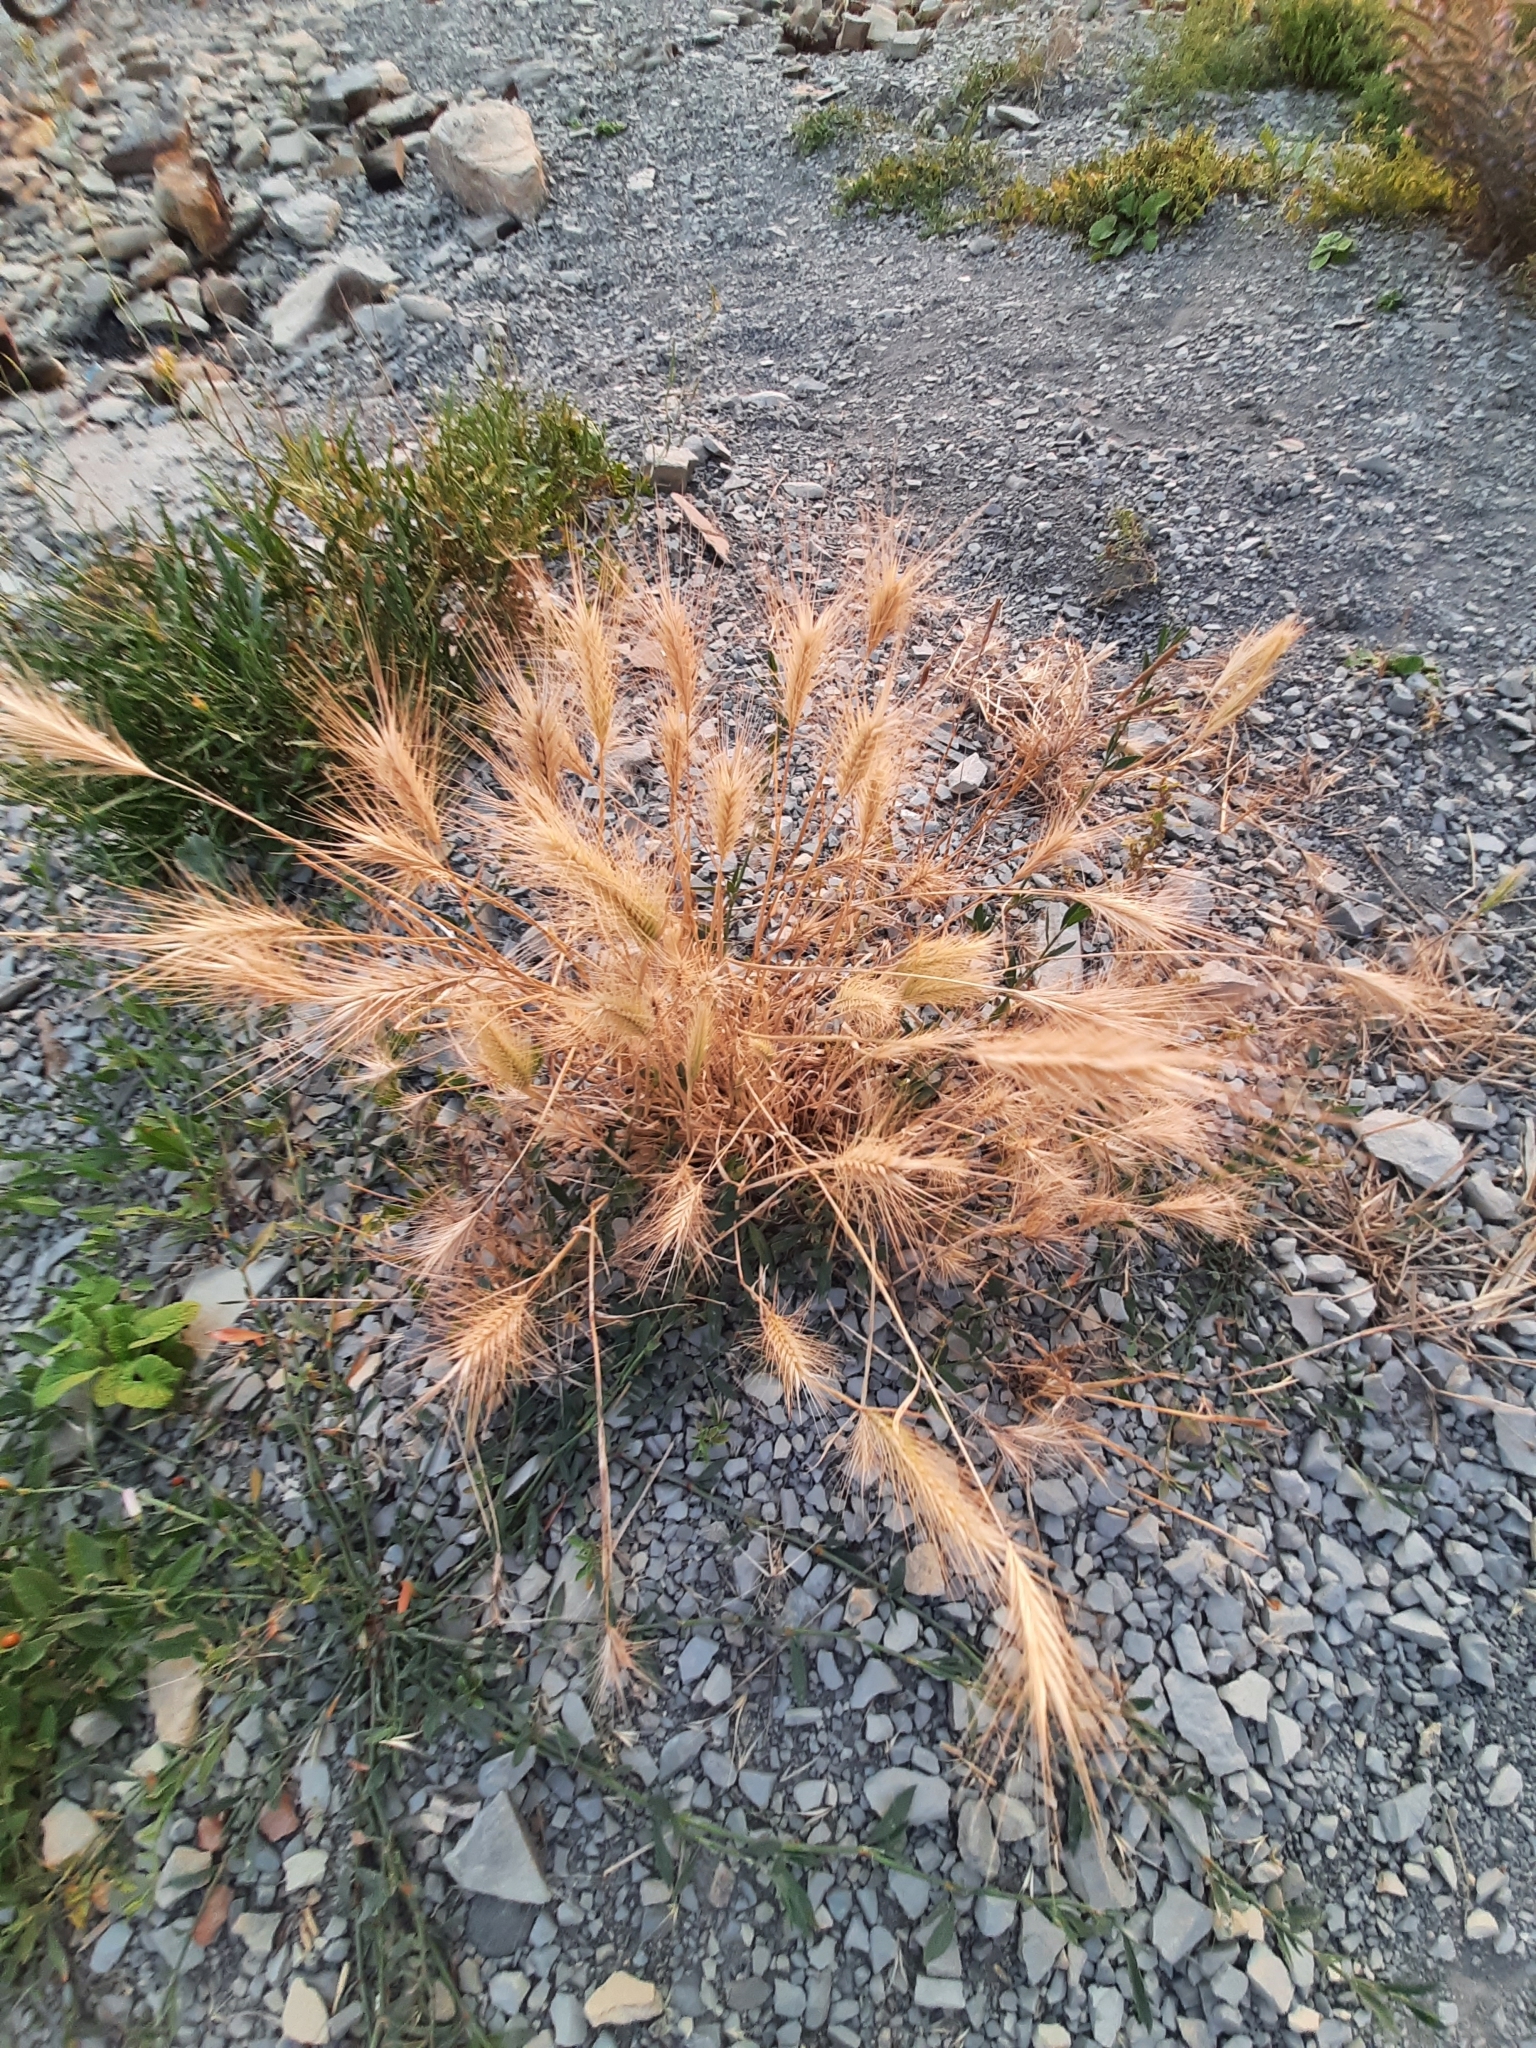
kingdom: Plantae
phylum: Tracheophyta
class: Liliopsida
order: Poales
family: Poaceae
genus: Hordeum
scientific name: Hordeum murinum
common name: Wall barley
